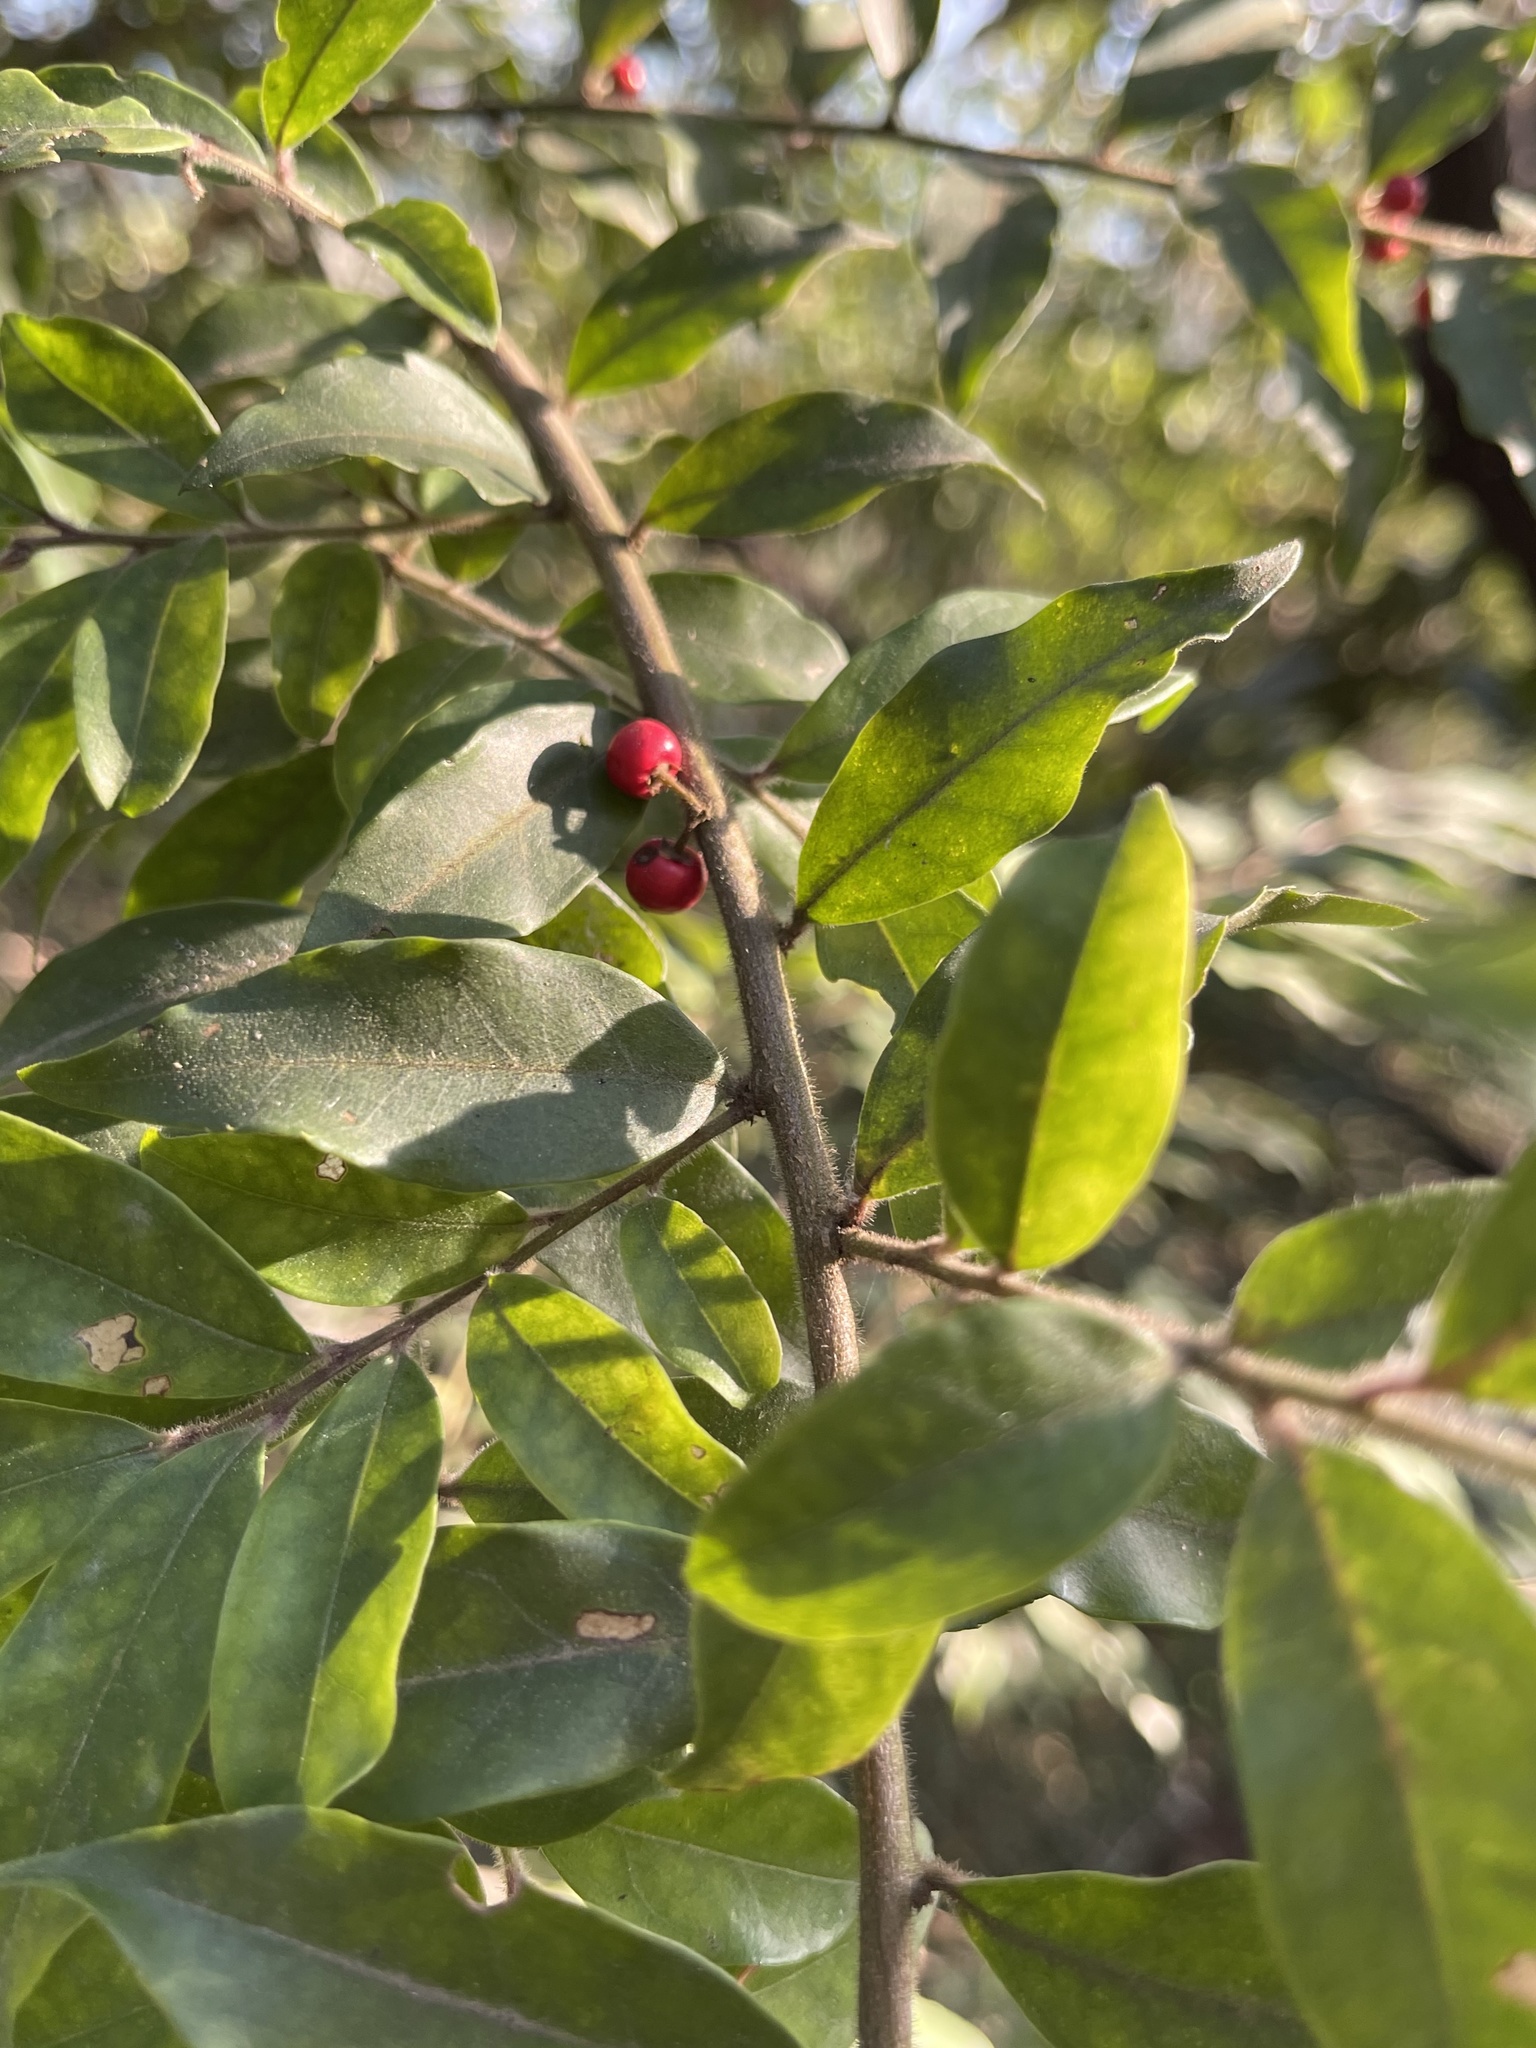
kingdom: Plantae
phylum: Tracheophyta
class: Magnoliopsida
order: Aquifoliales
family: Aquifoliaceae
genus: Ilex
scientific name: Ilex memecylifolia
